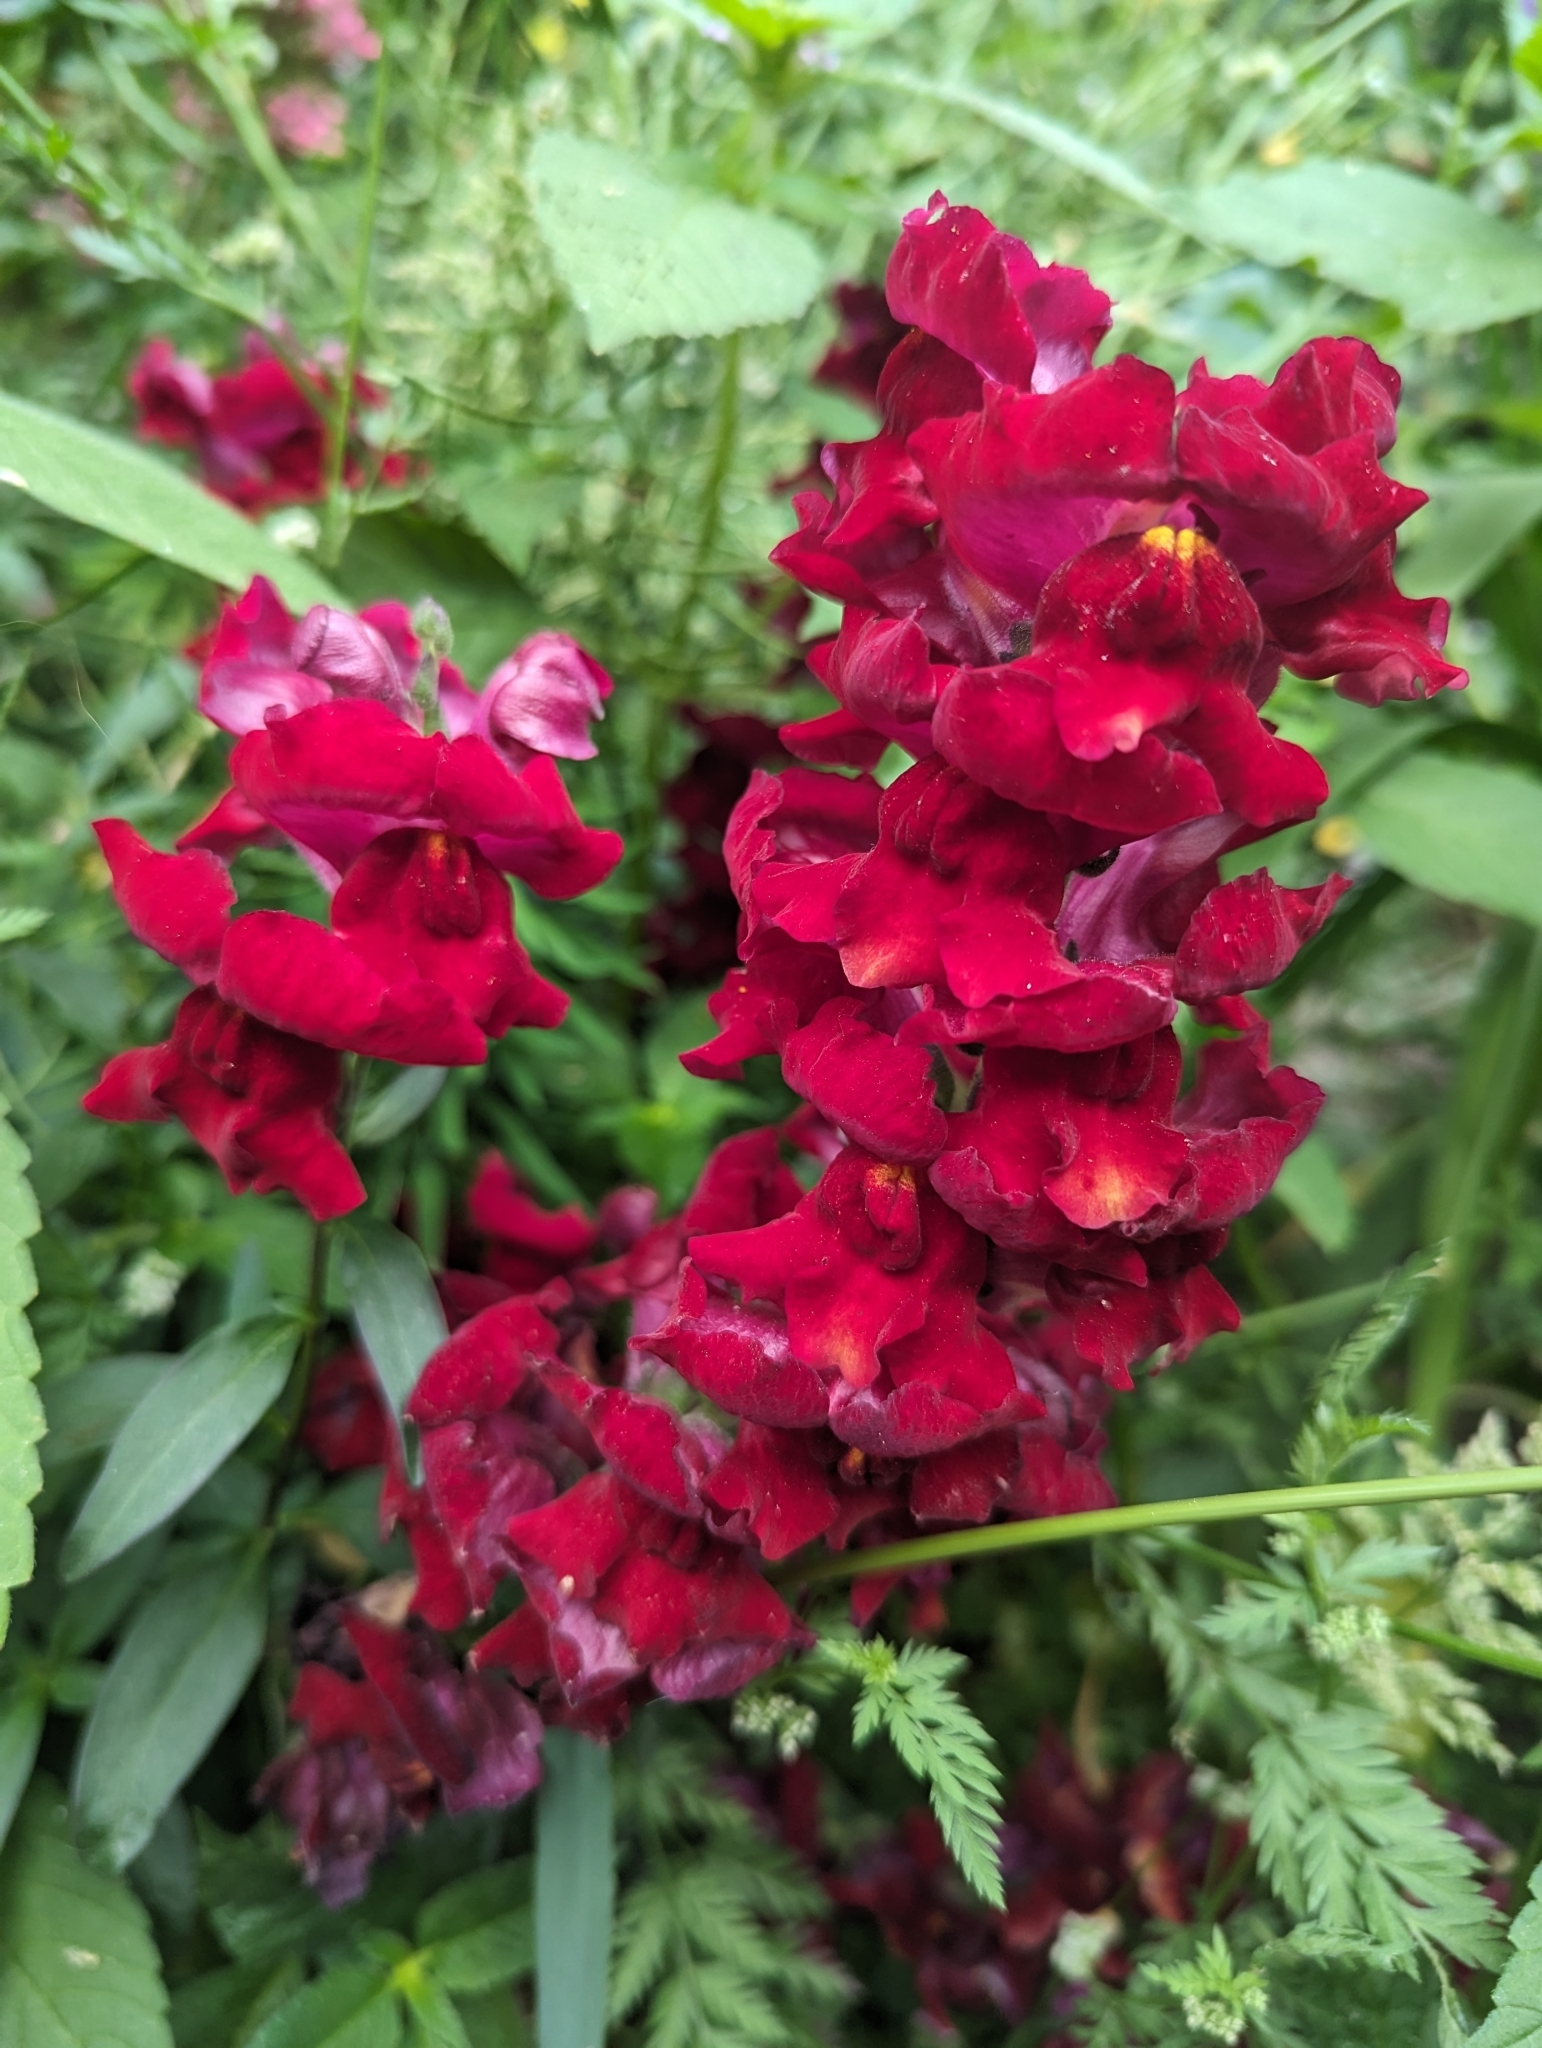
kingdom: Plantae
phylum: Tracheophyta
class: Magnoliopsida
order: Lamiales
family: Plantaginaceae
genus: Antirrhinum
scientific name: Antirrhinum majus
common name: Snapdragon
